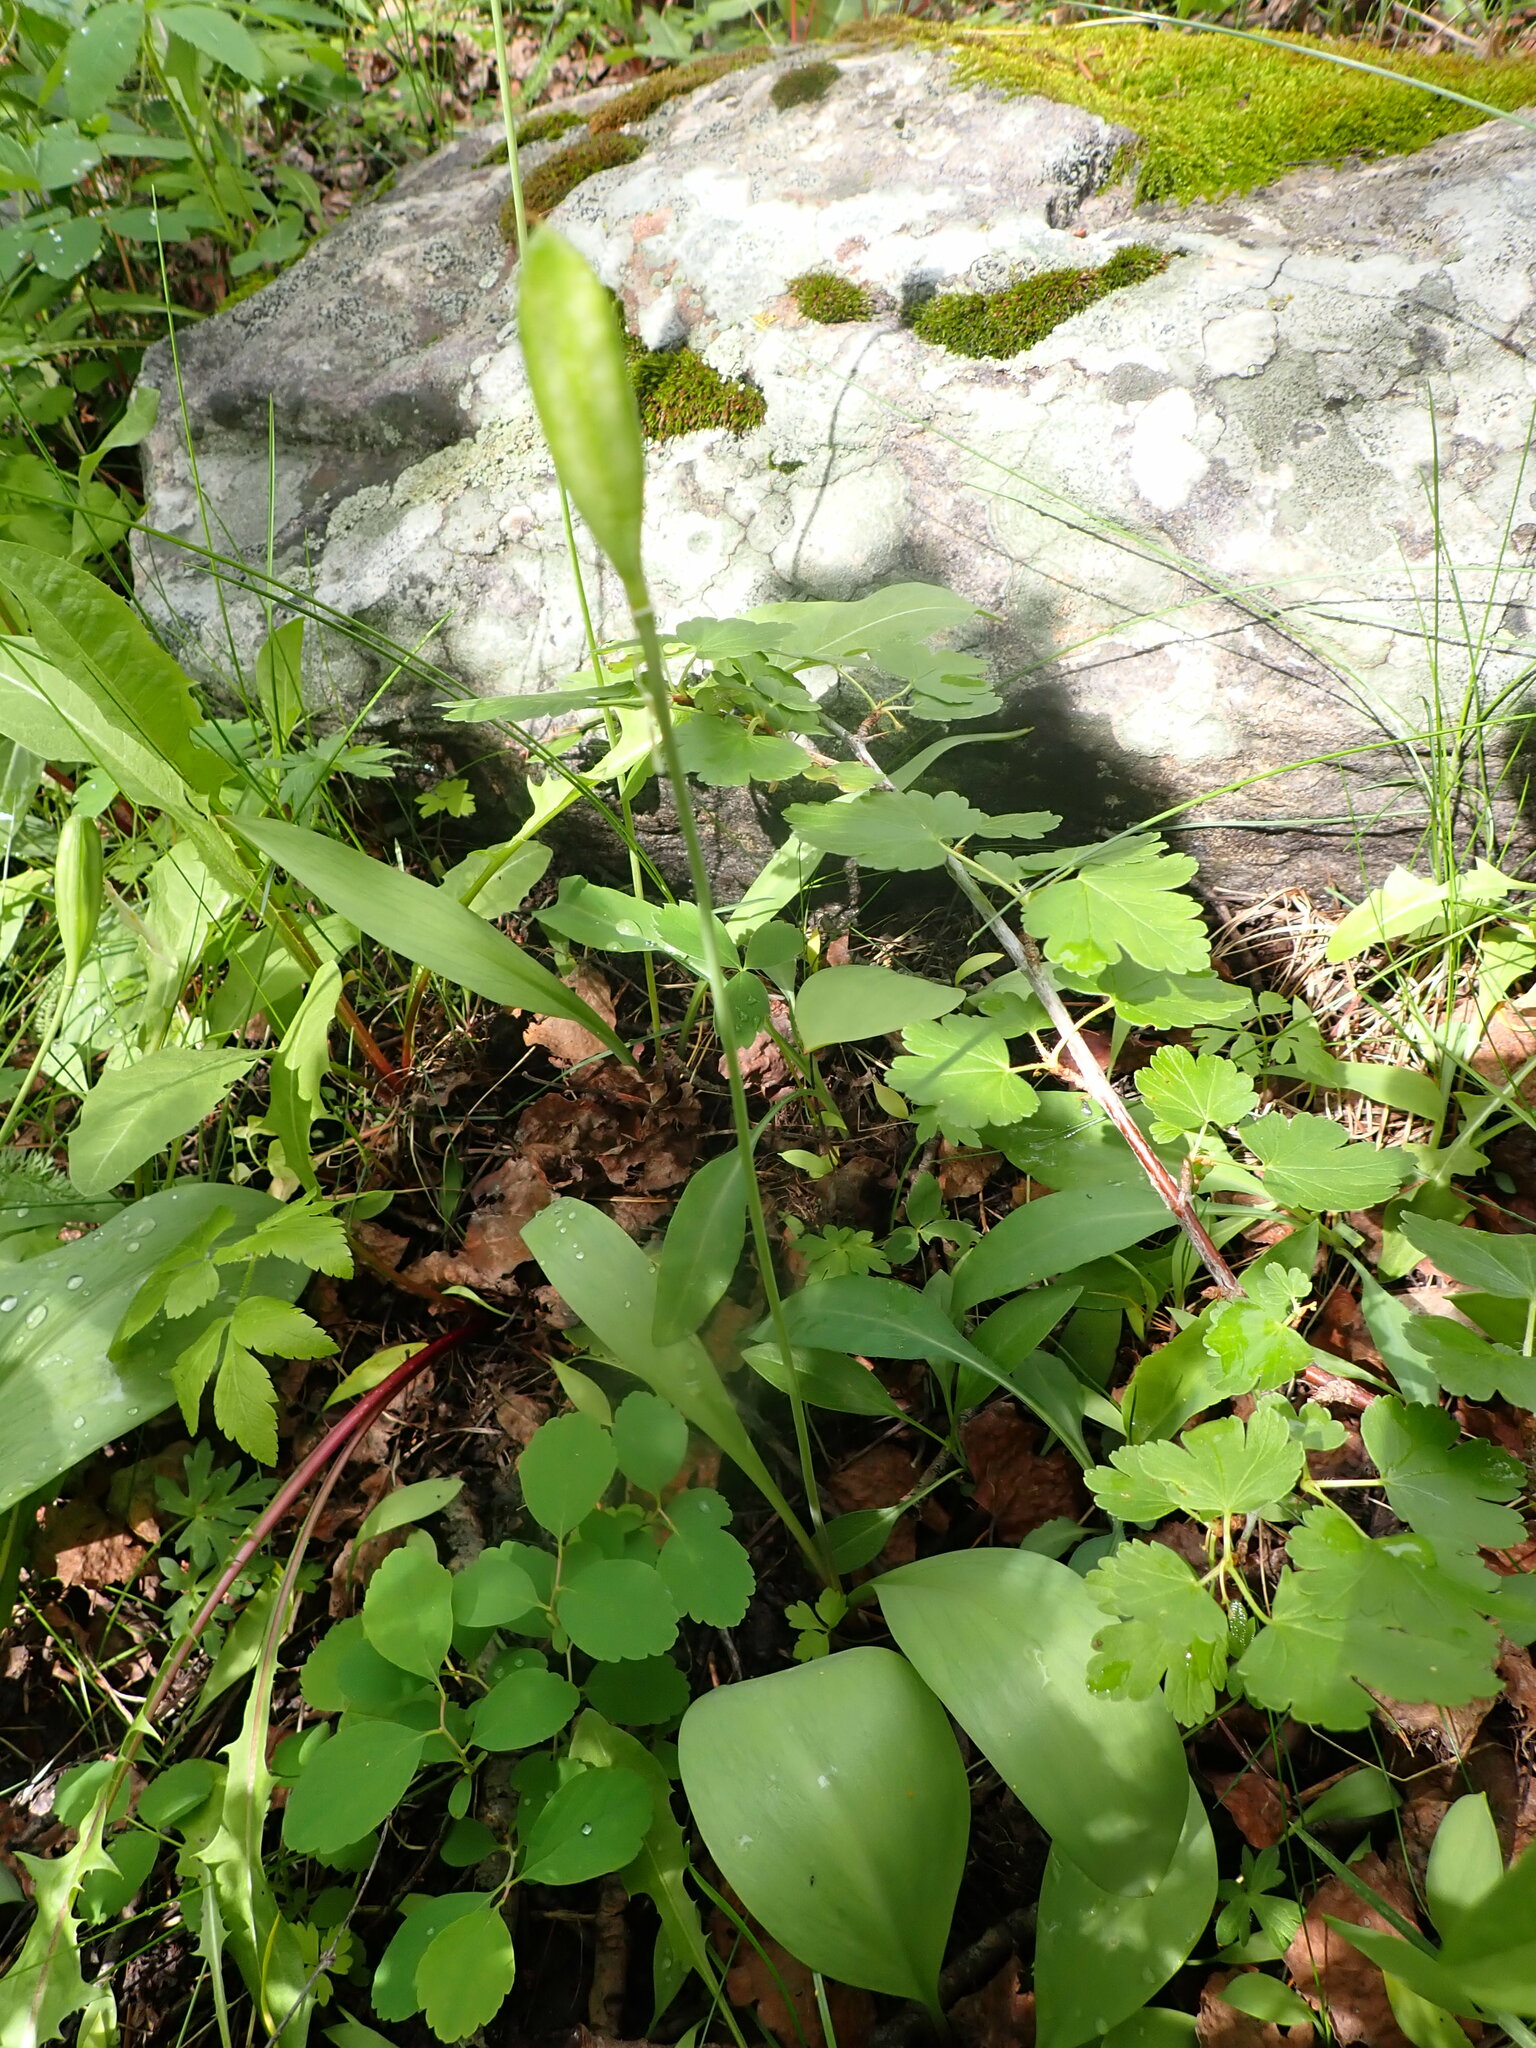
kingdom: Plantae
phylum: Tracheophyta
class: Liliopsida
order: Liliales
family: Liliaceae
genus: Erythronium
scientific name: Erythronium grandiflorum
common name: Avalanche-lily
